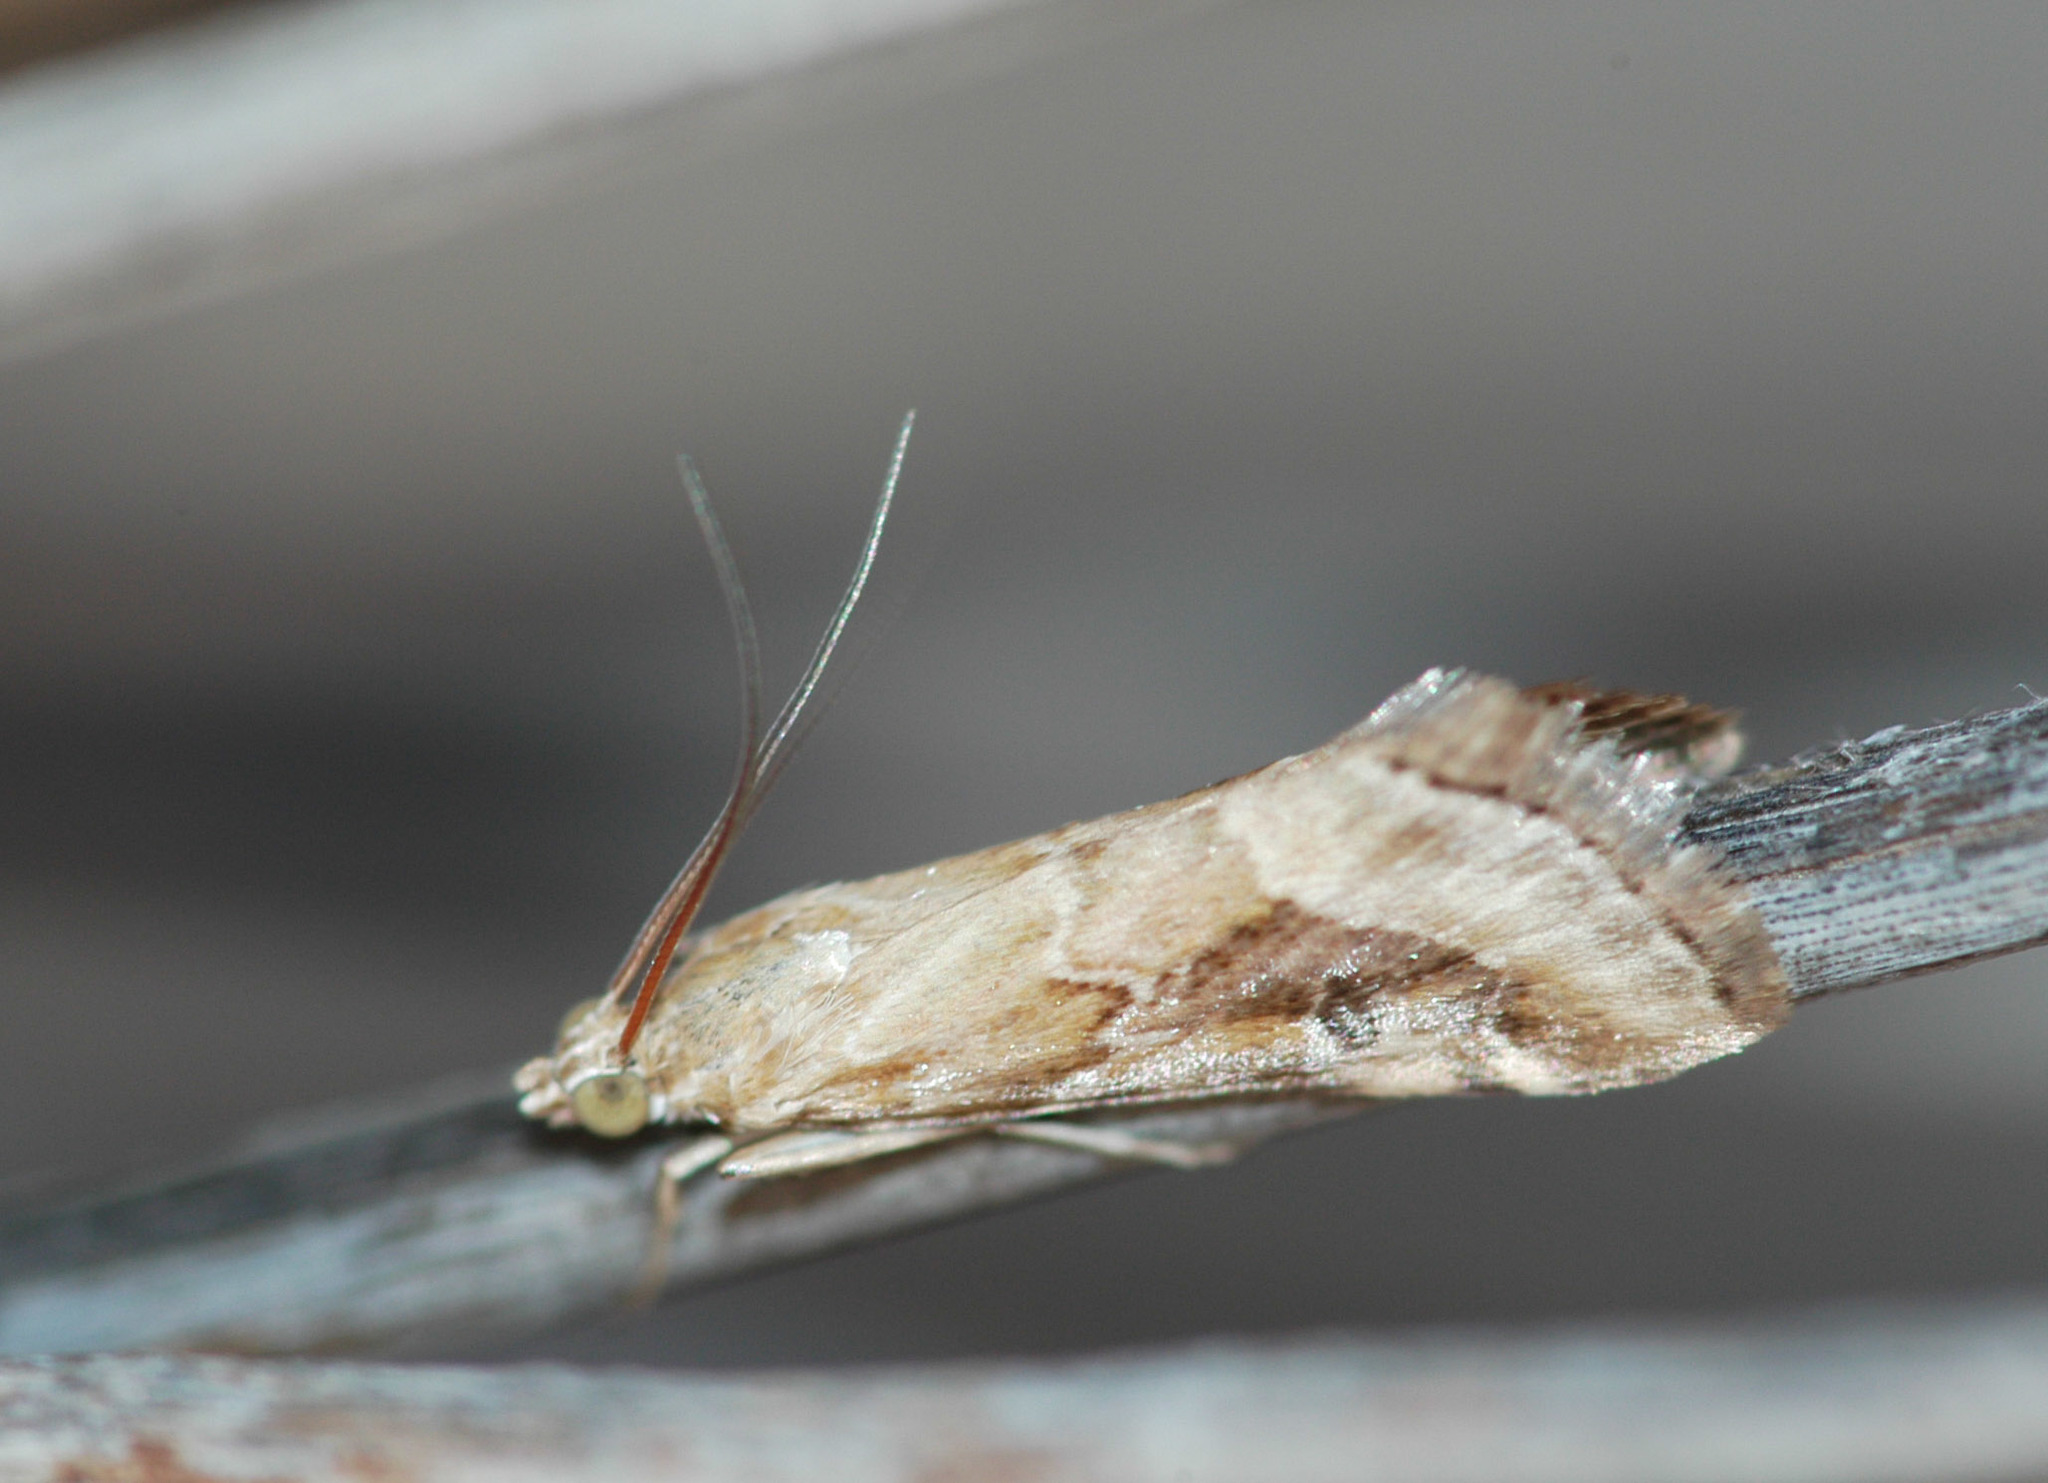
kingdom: Animalia
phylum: Arthropoda
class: Insecta
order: Lepidoptera
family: Crambidae
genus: Hellula
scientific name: Hellula hydralis
